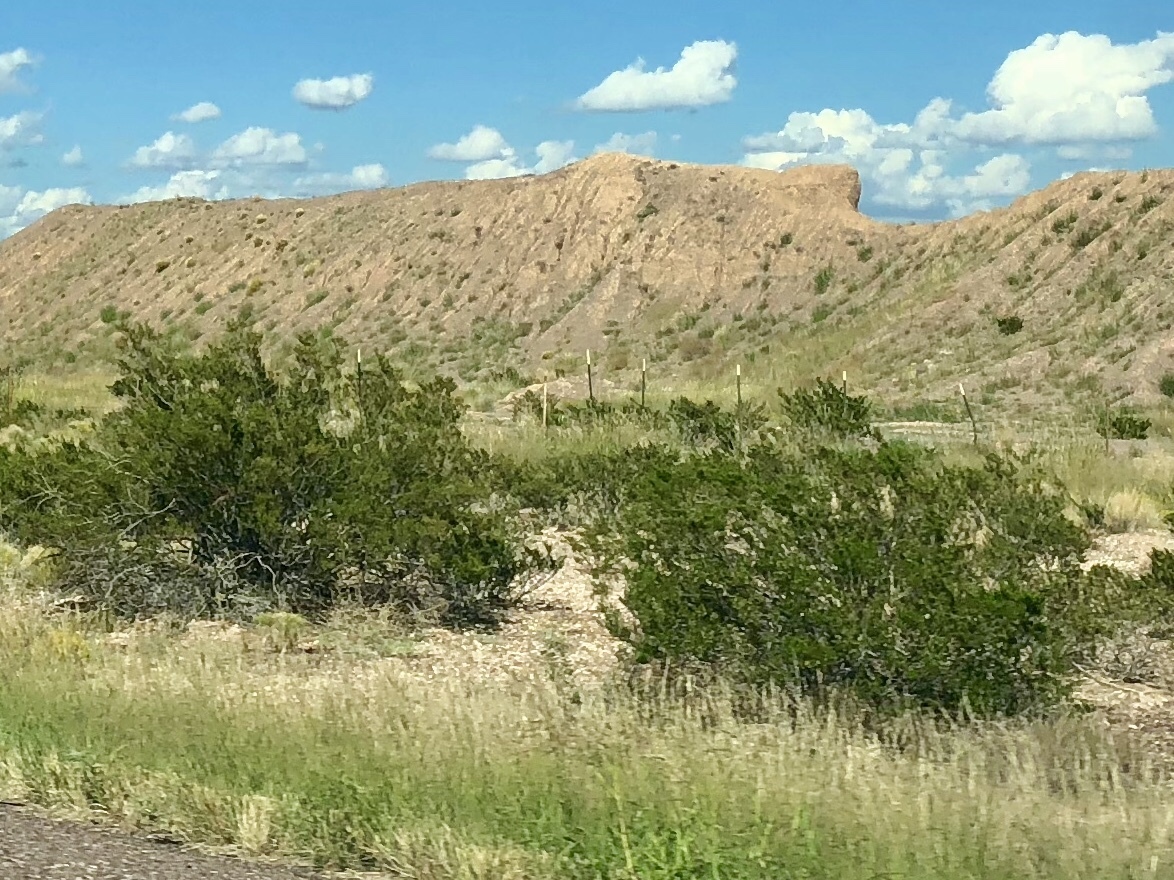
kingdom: Plantae
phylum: Tracheophyta
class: Magnoliopsida
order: Zygophyllales
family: Zygophyllaceae
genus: Larrea
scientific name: Larrea tridentata
